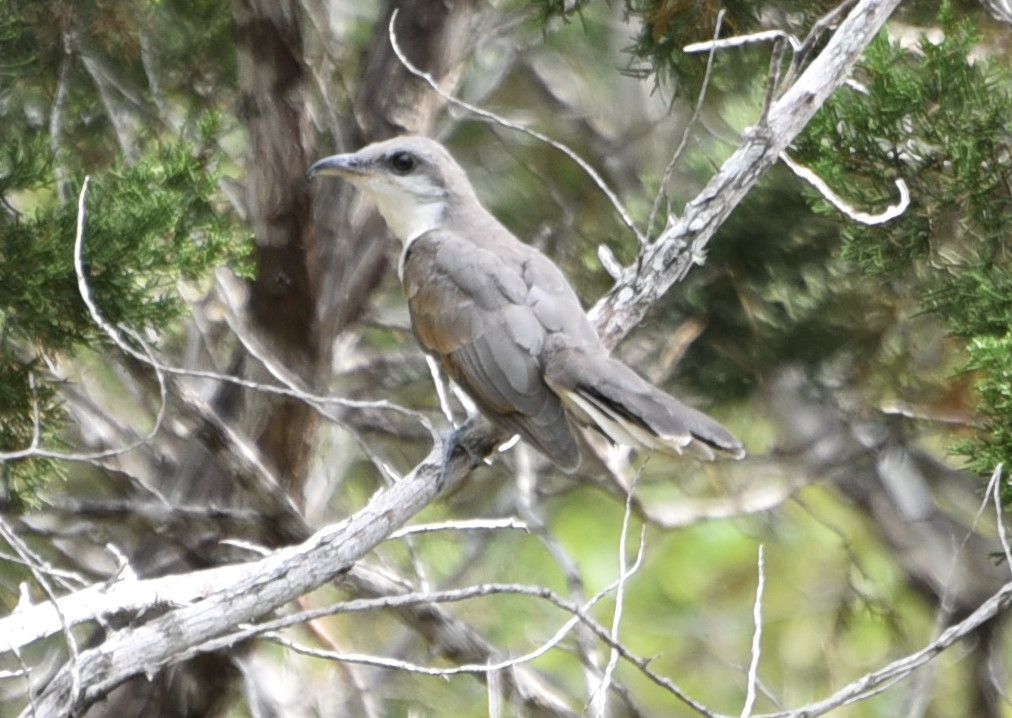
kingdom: Animalia
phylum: Chordata
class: Aves
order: Cuculiformes
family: Cuculidae
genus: Coccyzus
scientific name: Coccyzus americanus
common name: Yellow-billed cuckoo
